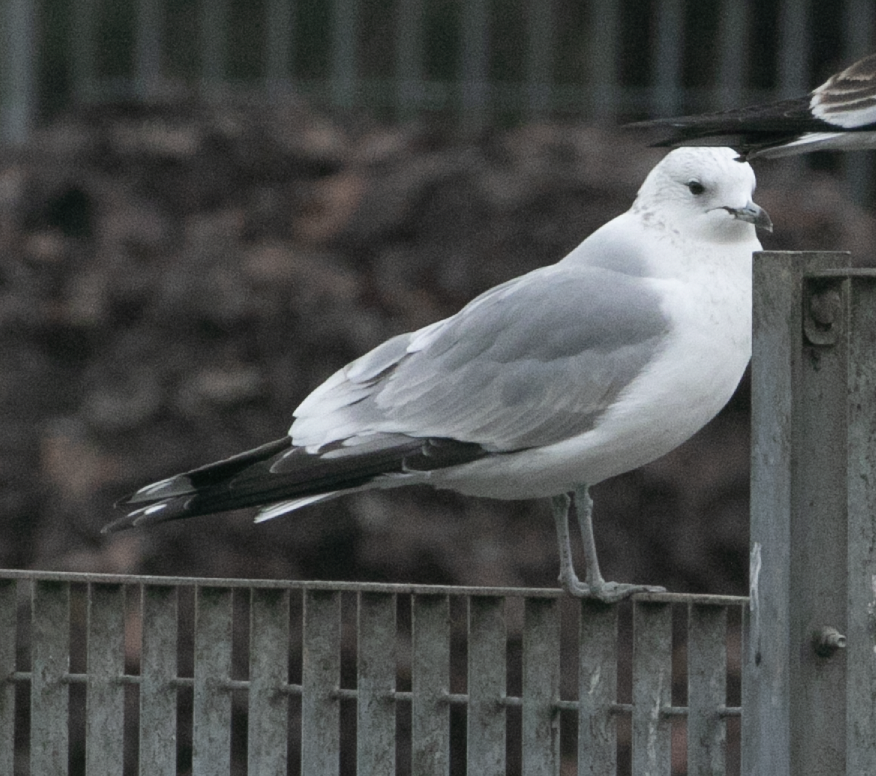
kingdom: Animalia
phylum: Chordata
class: Aves
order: Charadriiformes
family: Laridae
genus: Larus
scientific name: Larus canus
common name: Mew gull
